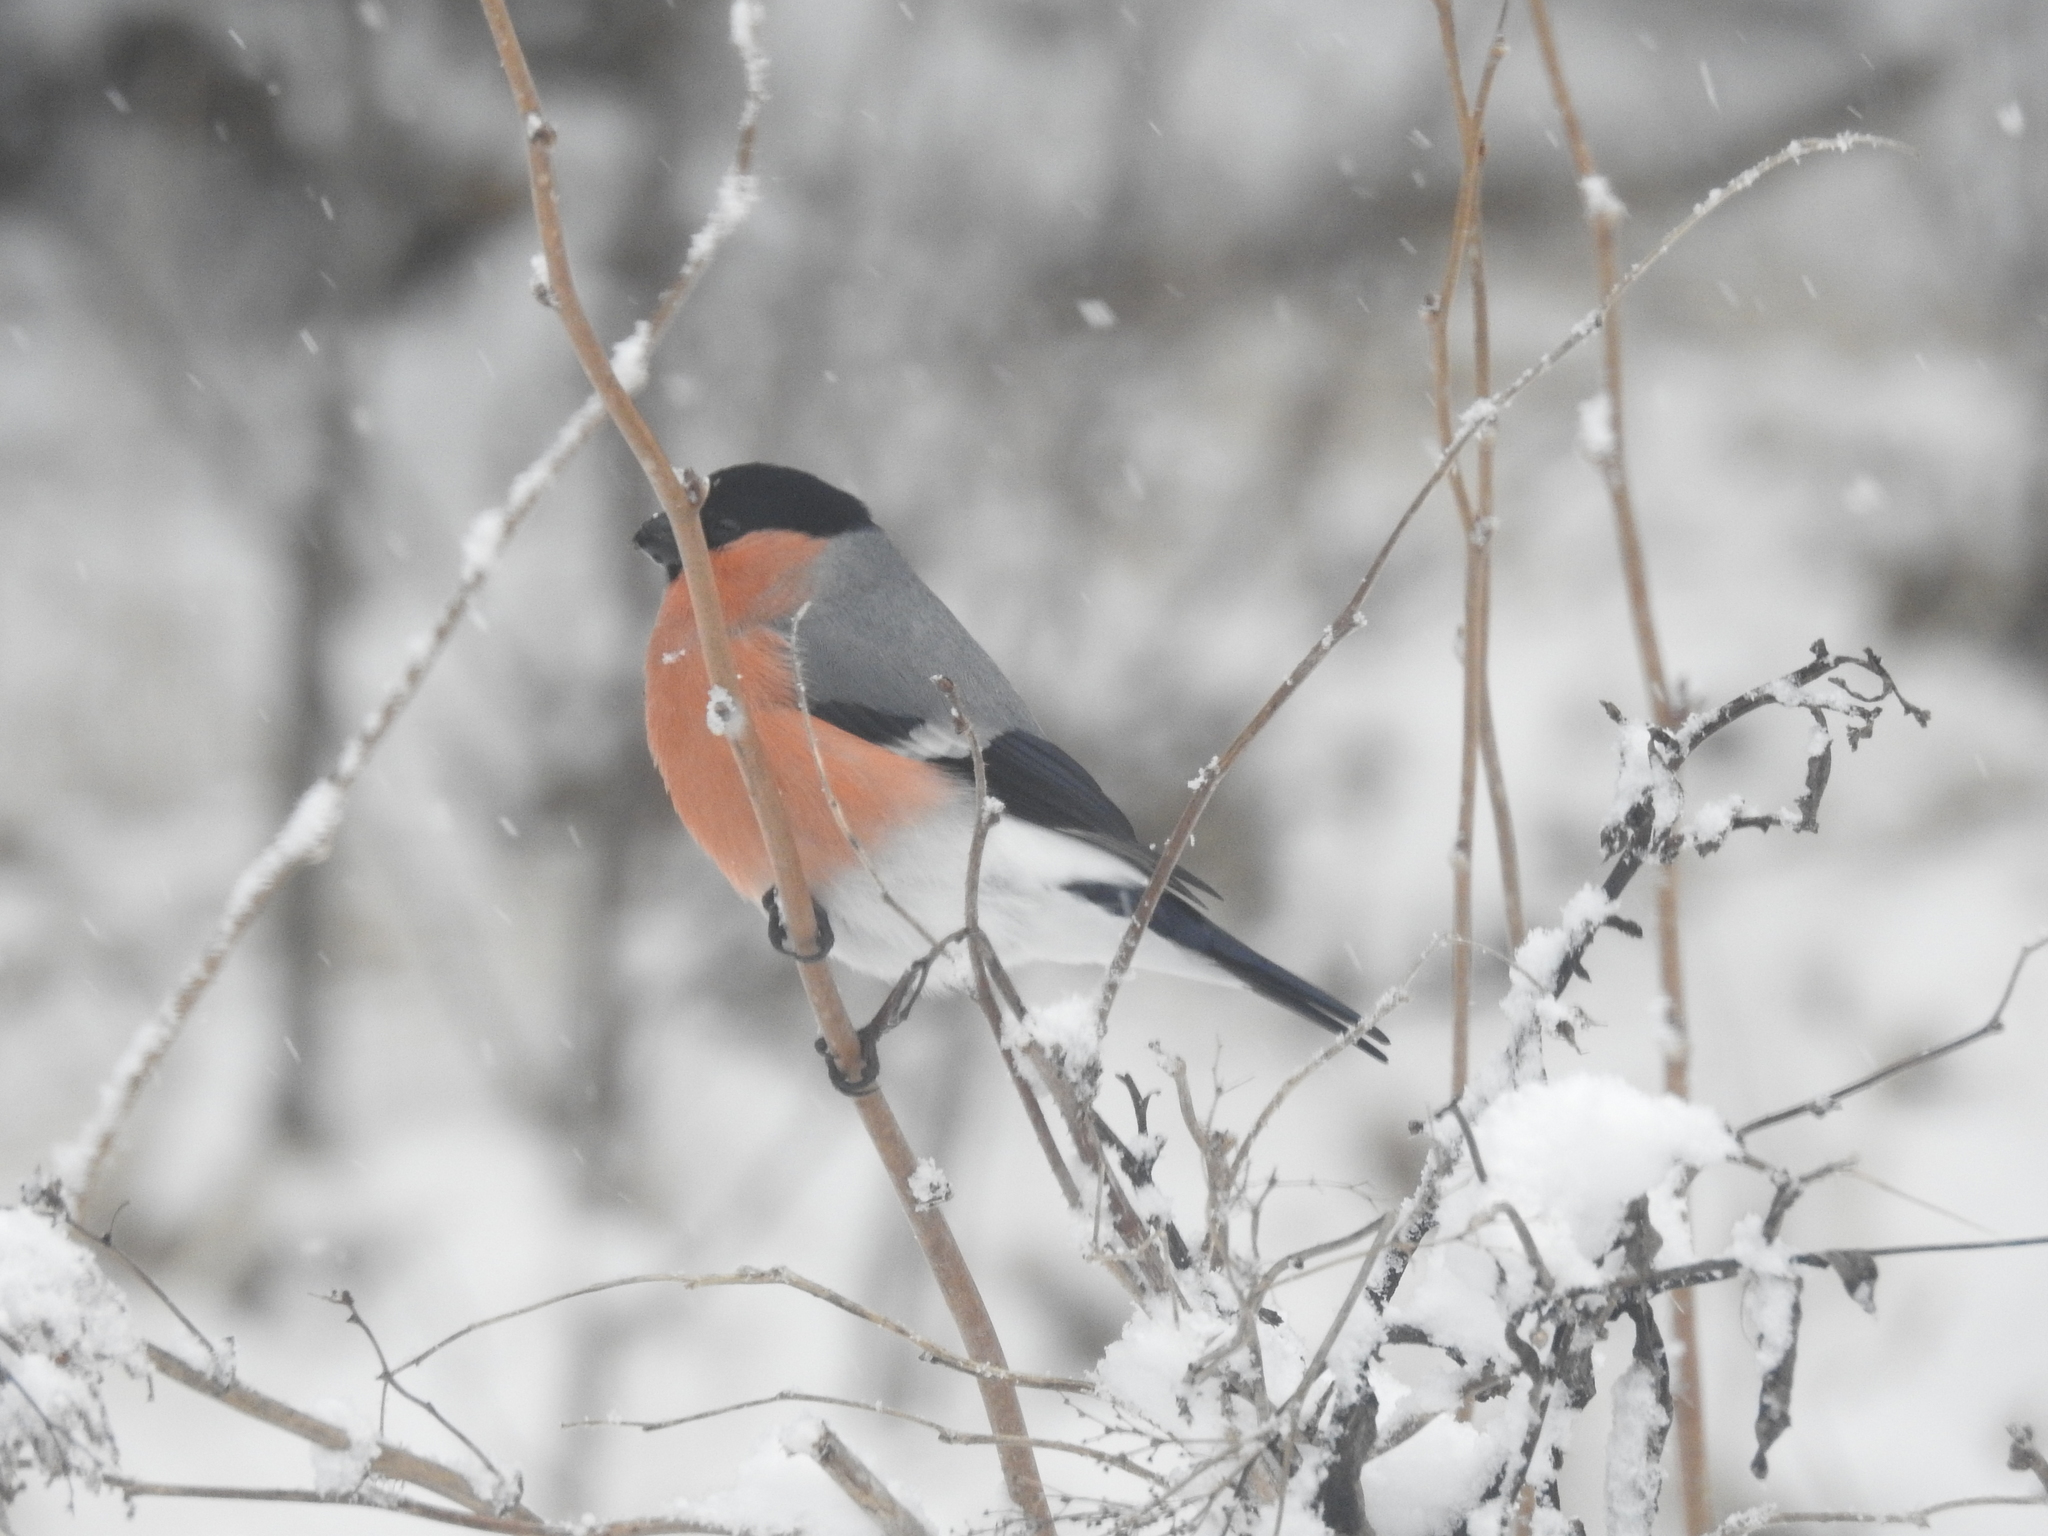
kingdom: Animalia
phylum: Chordata
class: Aves
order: Passeriformes
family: Fringillidae
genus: Pyrrhula
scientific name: Pyrrhula pyrrhula
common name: Eurasian bullfinch
